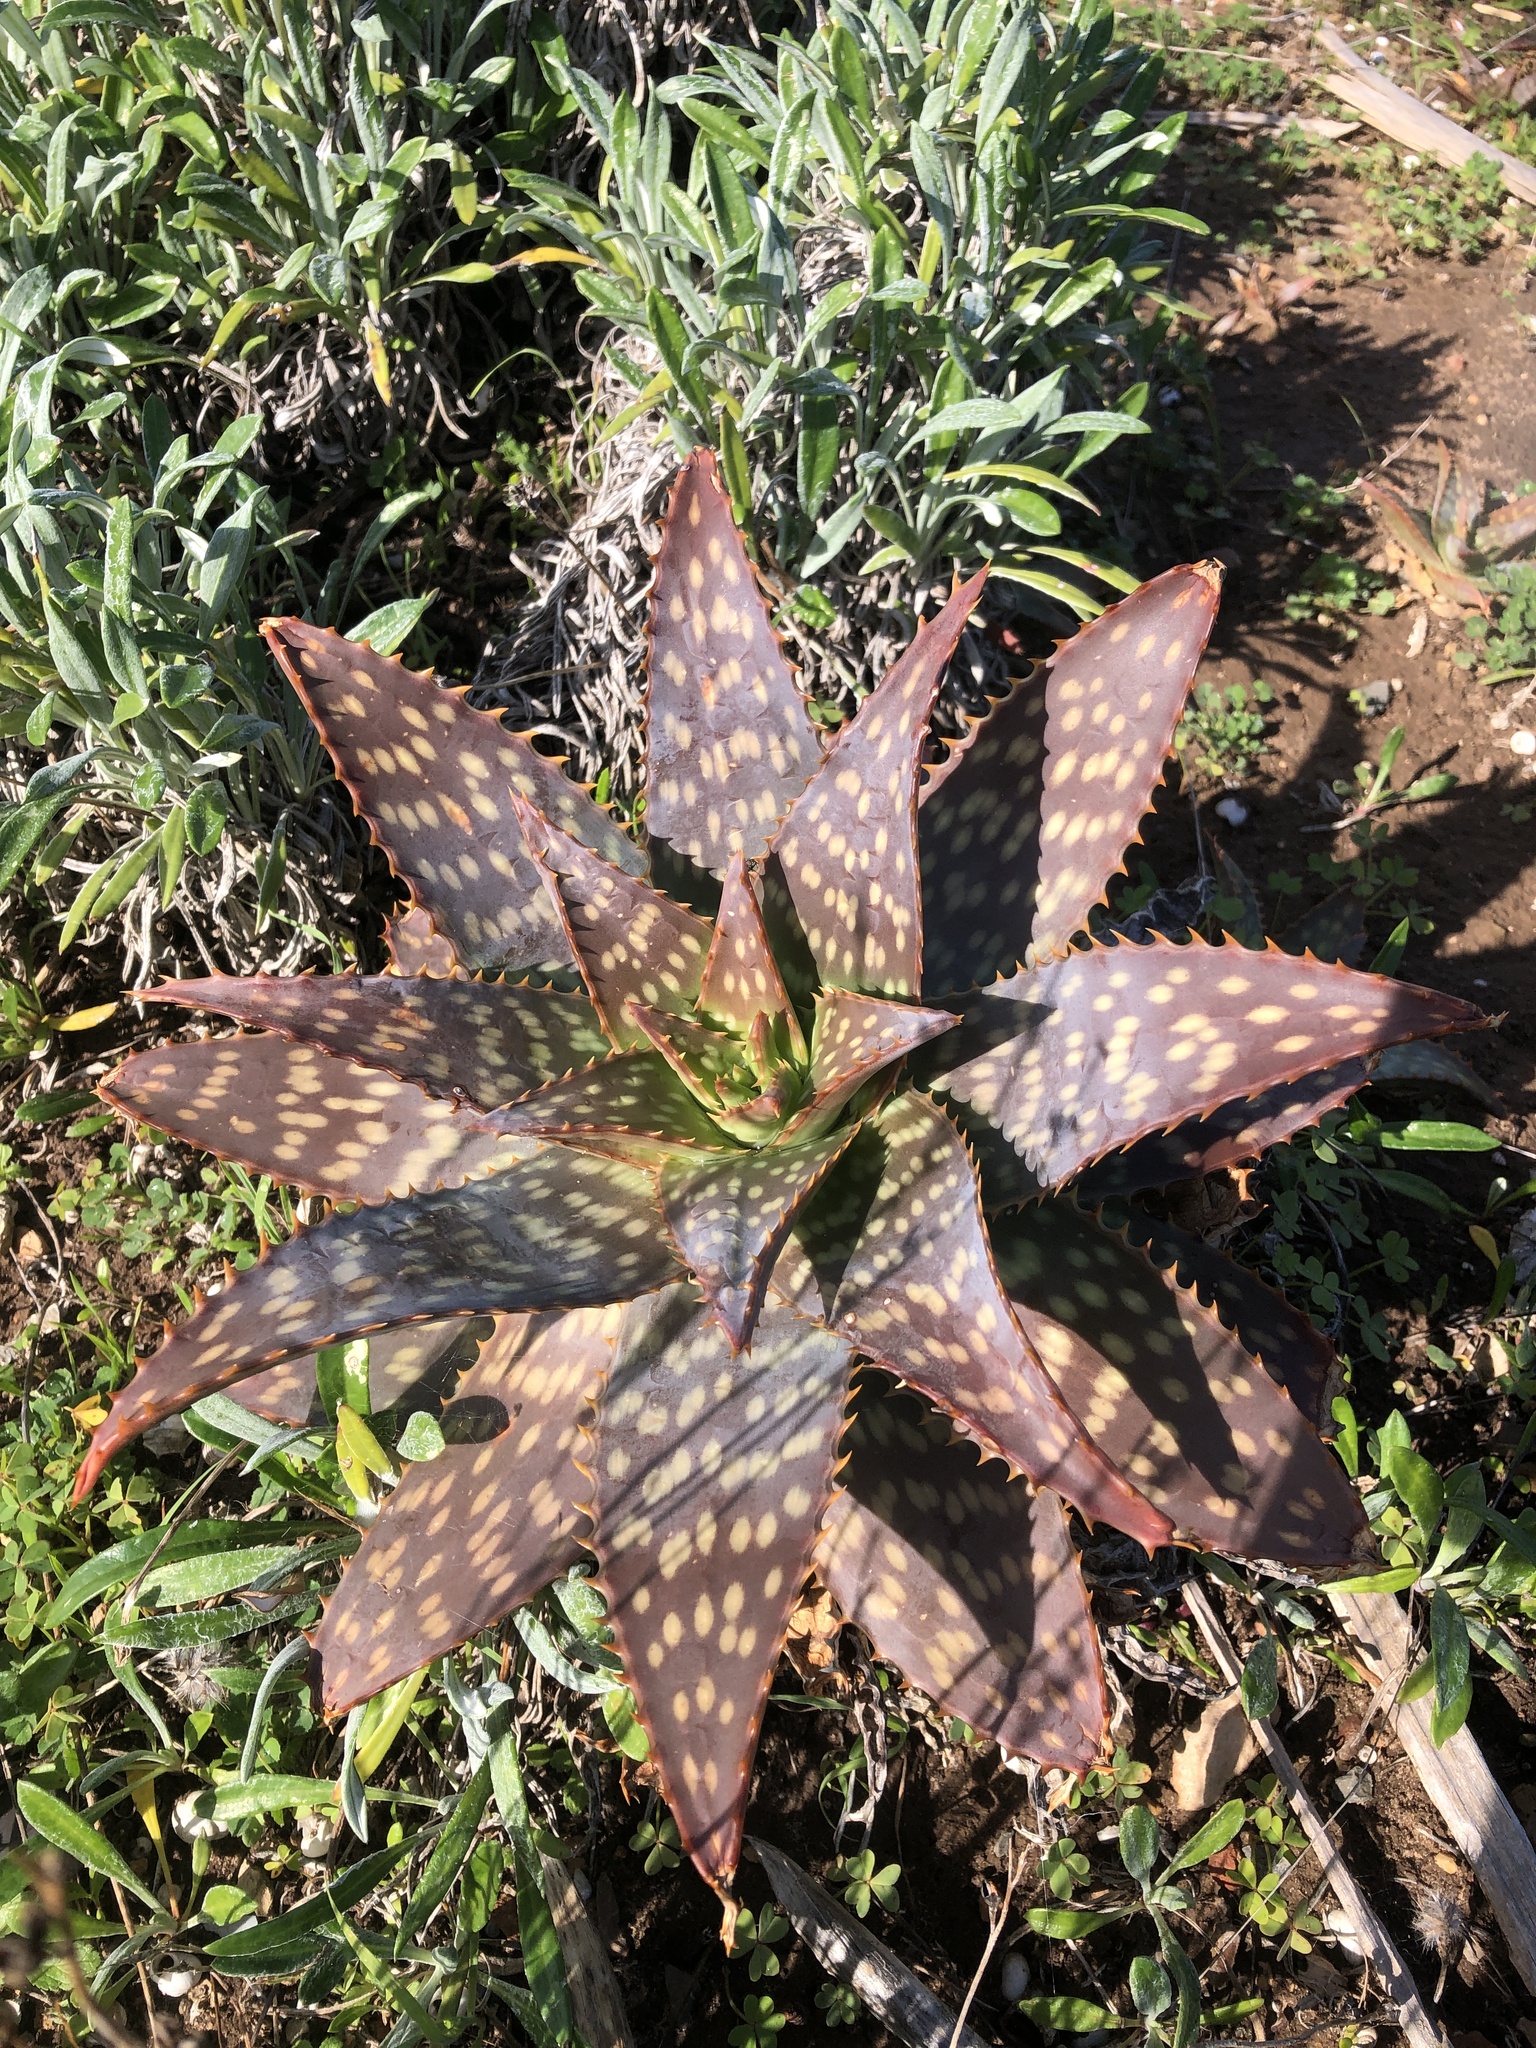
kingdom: Plantae
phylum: Tracheophyta
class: Liliopsida
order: Asparagales
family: Asphodelaceae
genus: Aloe
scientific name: Aloe maculata
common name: Broadleaf aloe
